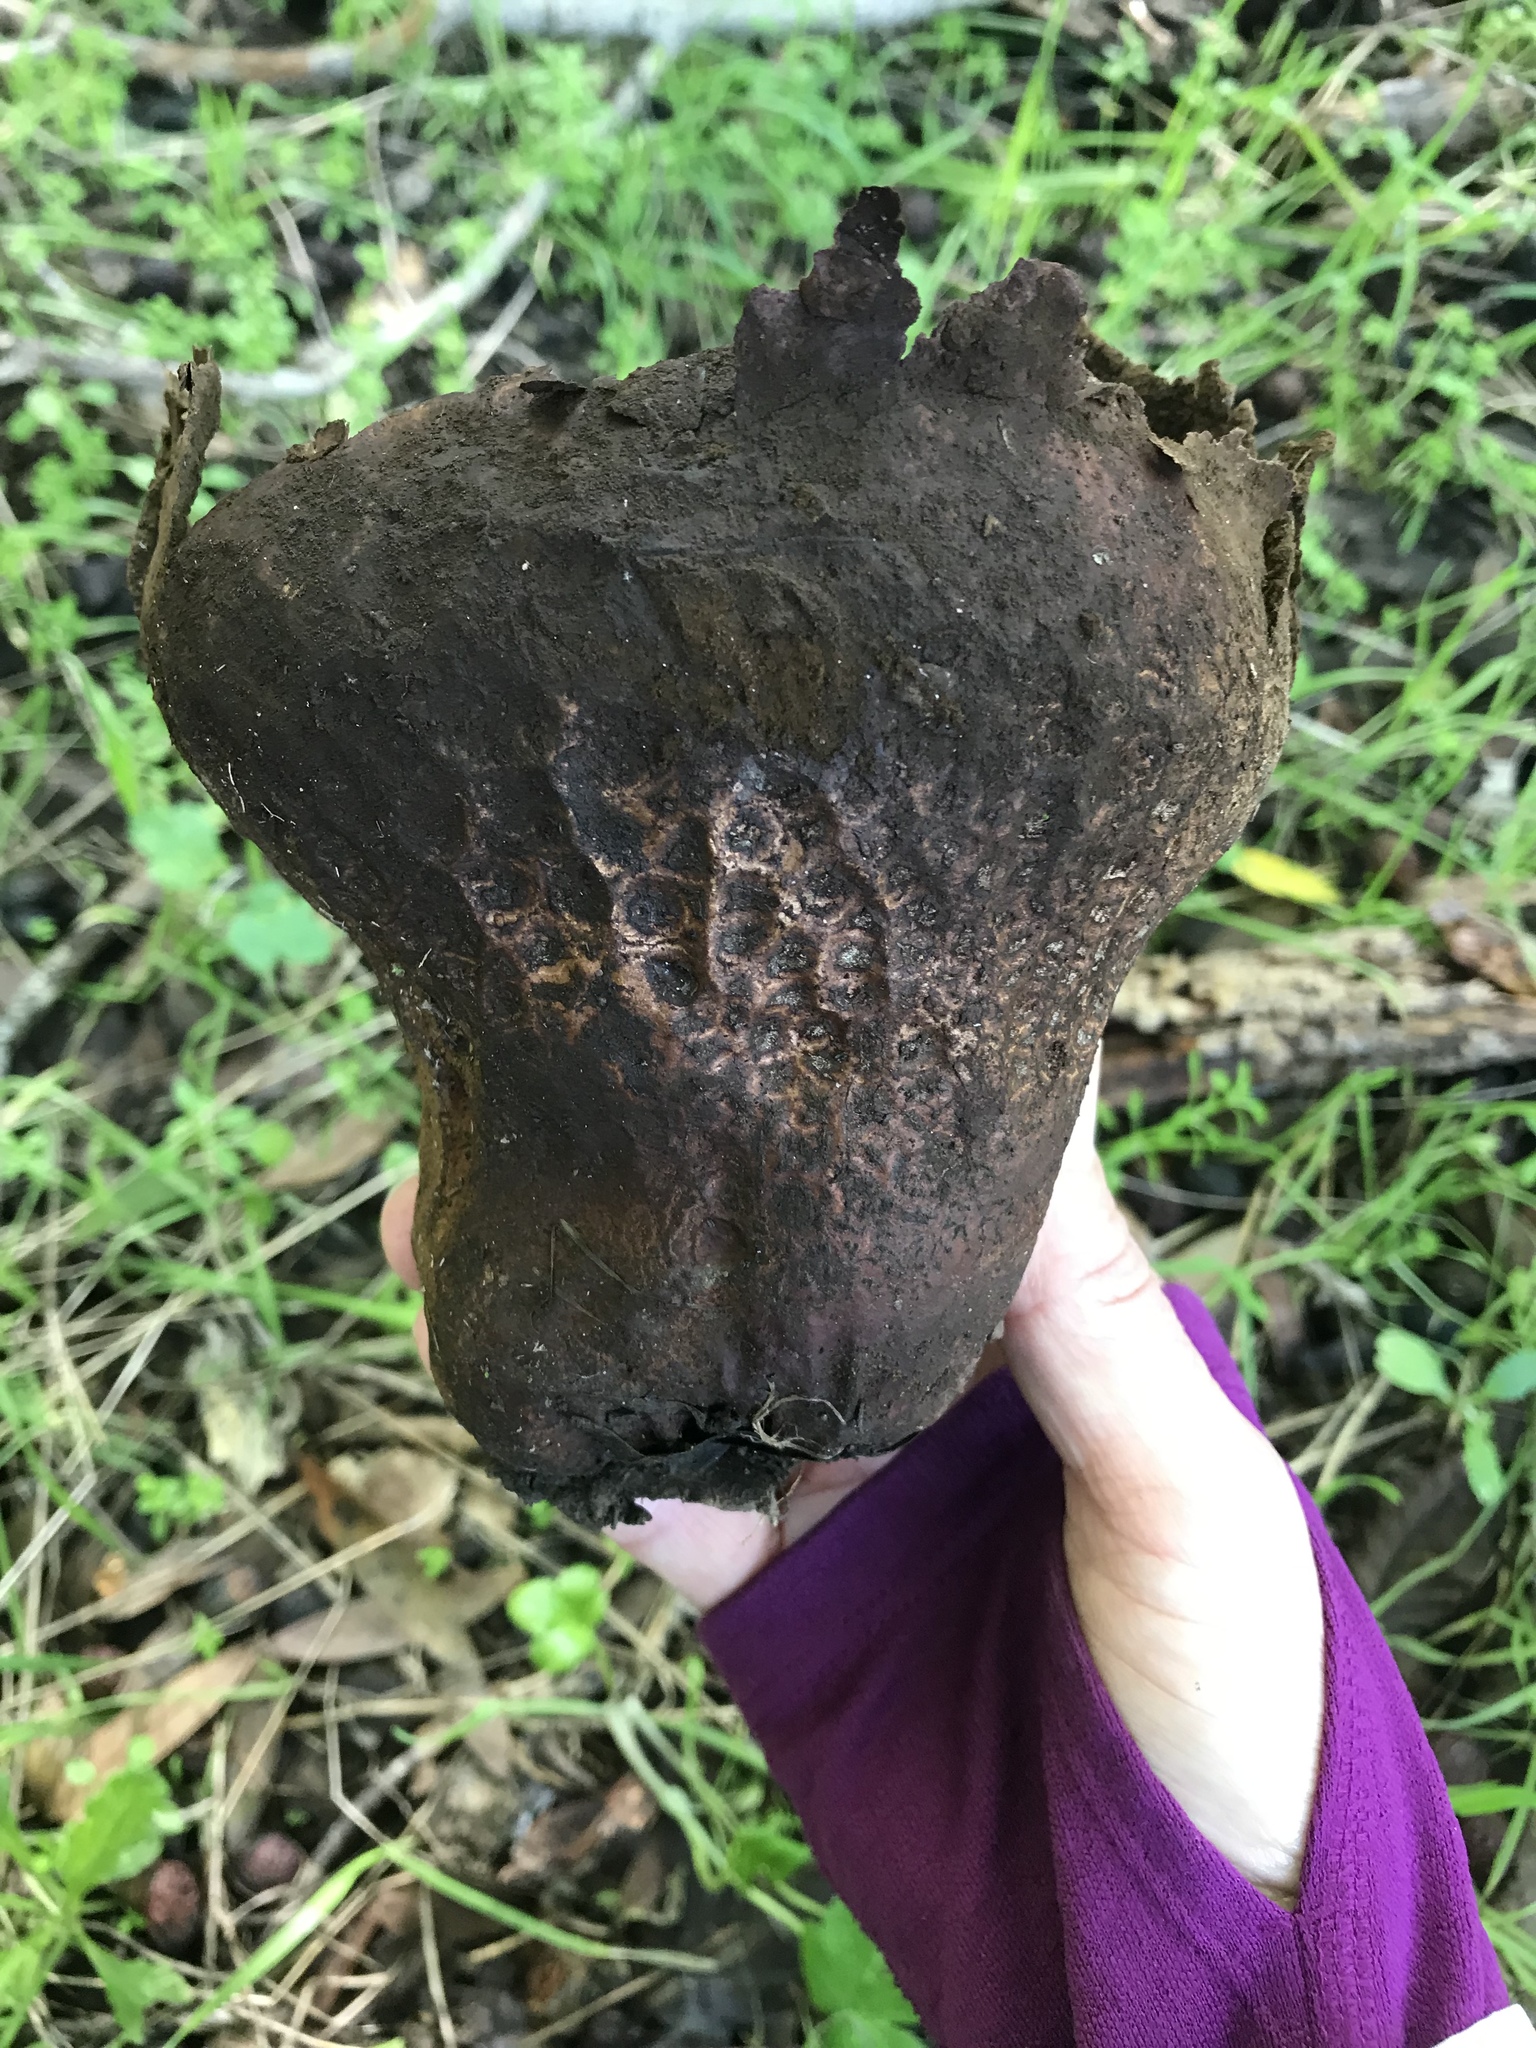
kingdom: Fungi
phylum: Basidiomycota
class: Agaricomycetes
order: Agaricales
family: Lycoperdaceae
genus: Calvatia
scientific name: Calvatia cyathiformis
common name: Purple-spored puffball
